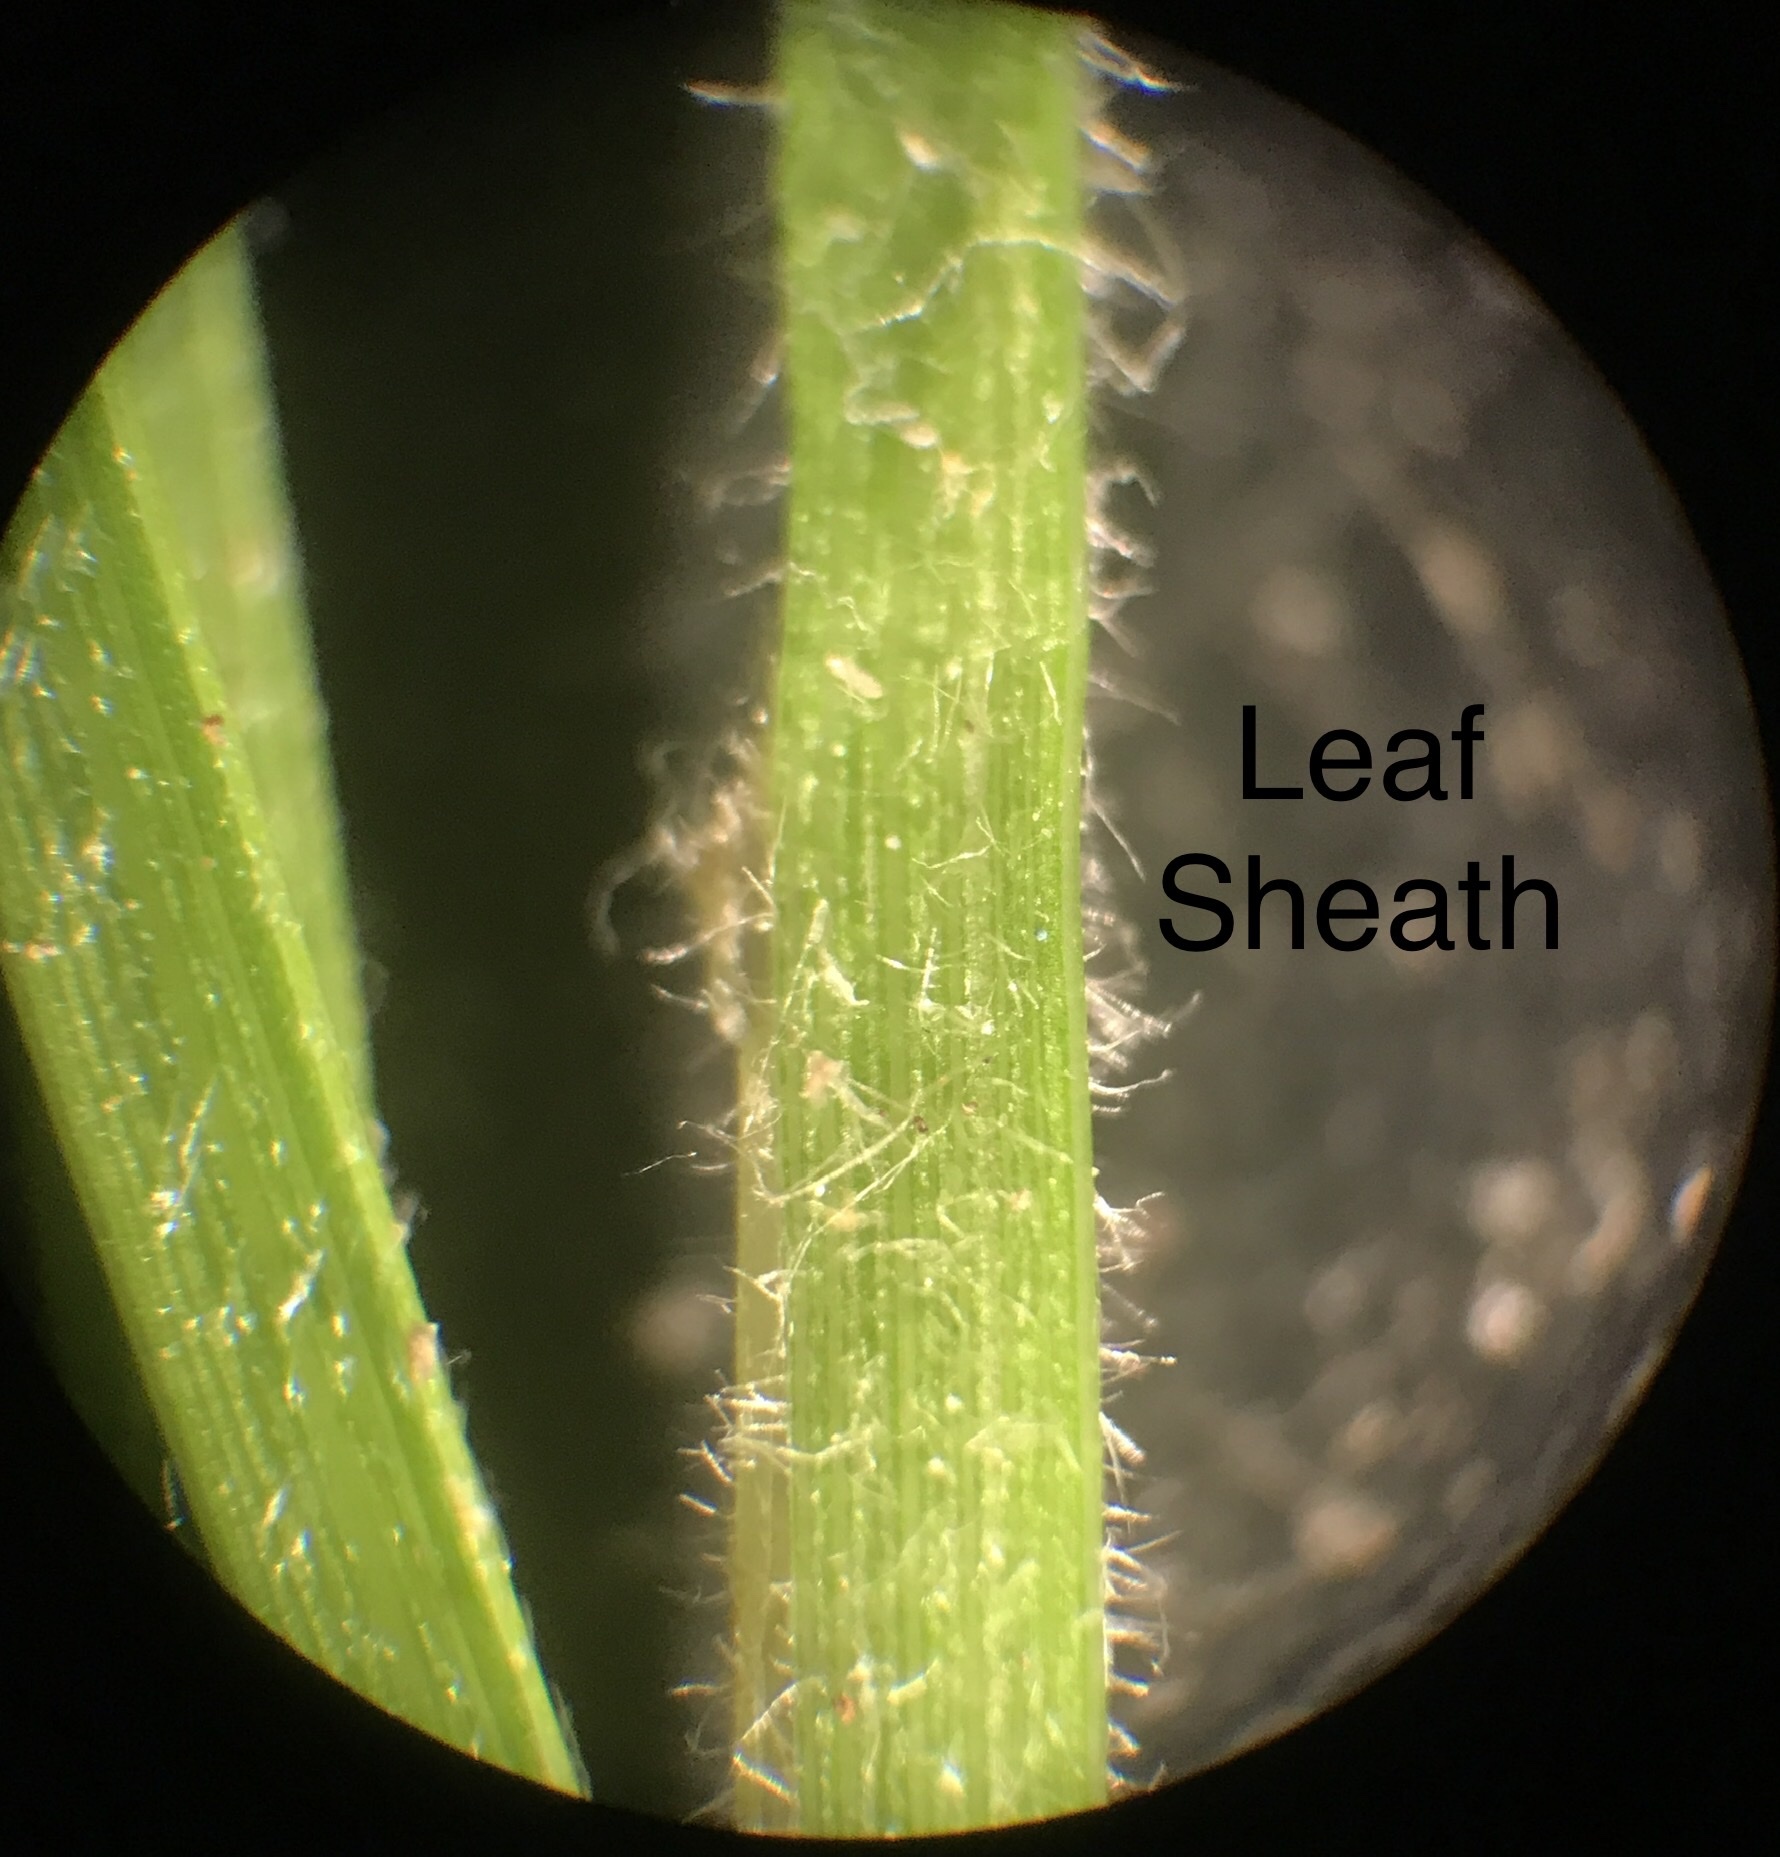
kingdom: Plantae
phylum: Tracheophyta
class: Liliopsida
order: Poales
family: Cyperaceae
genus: Carex
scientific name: Carex swanii
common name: Downy green sedge
